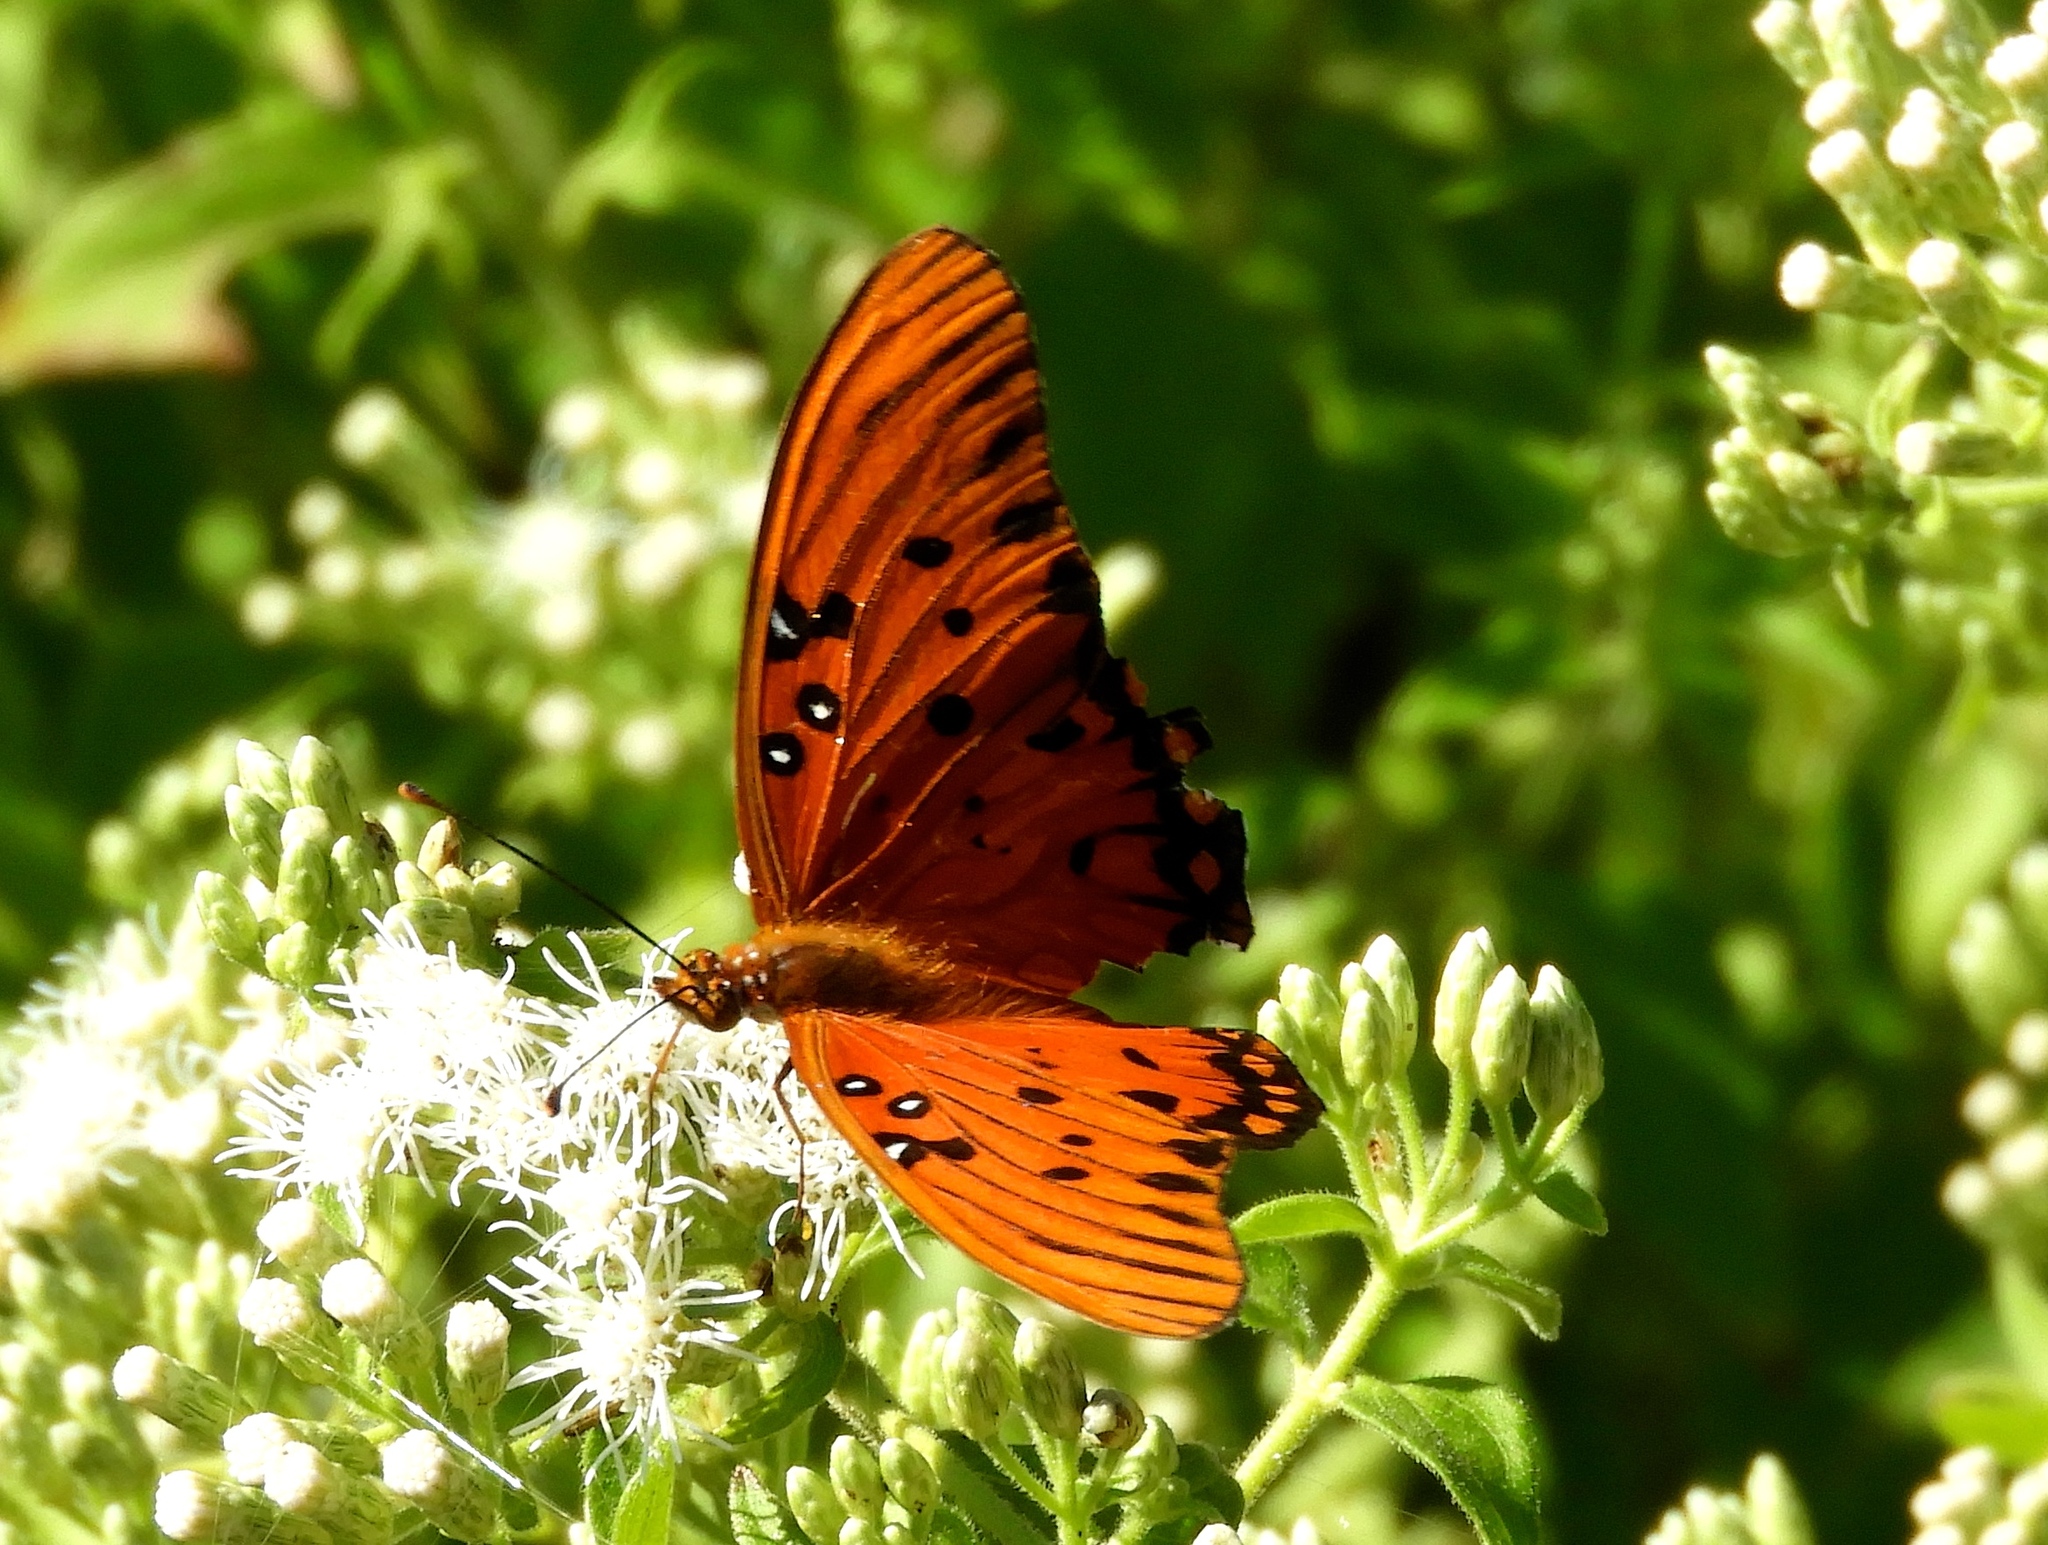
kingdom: Animalia
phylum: Arthropoda
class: Insecta
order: Lepidoptera
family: Nymphalidae
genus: Dione
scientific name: Dione vanillae
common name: Gulf fritillary
